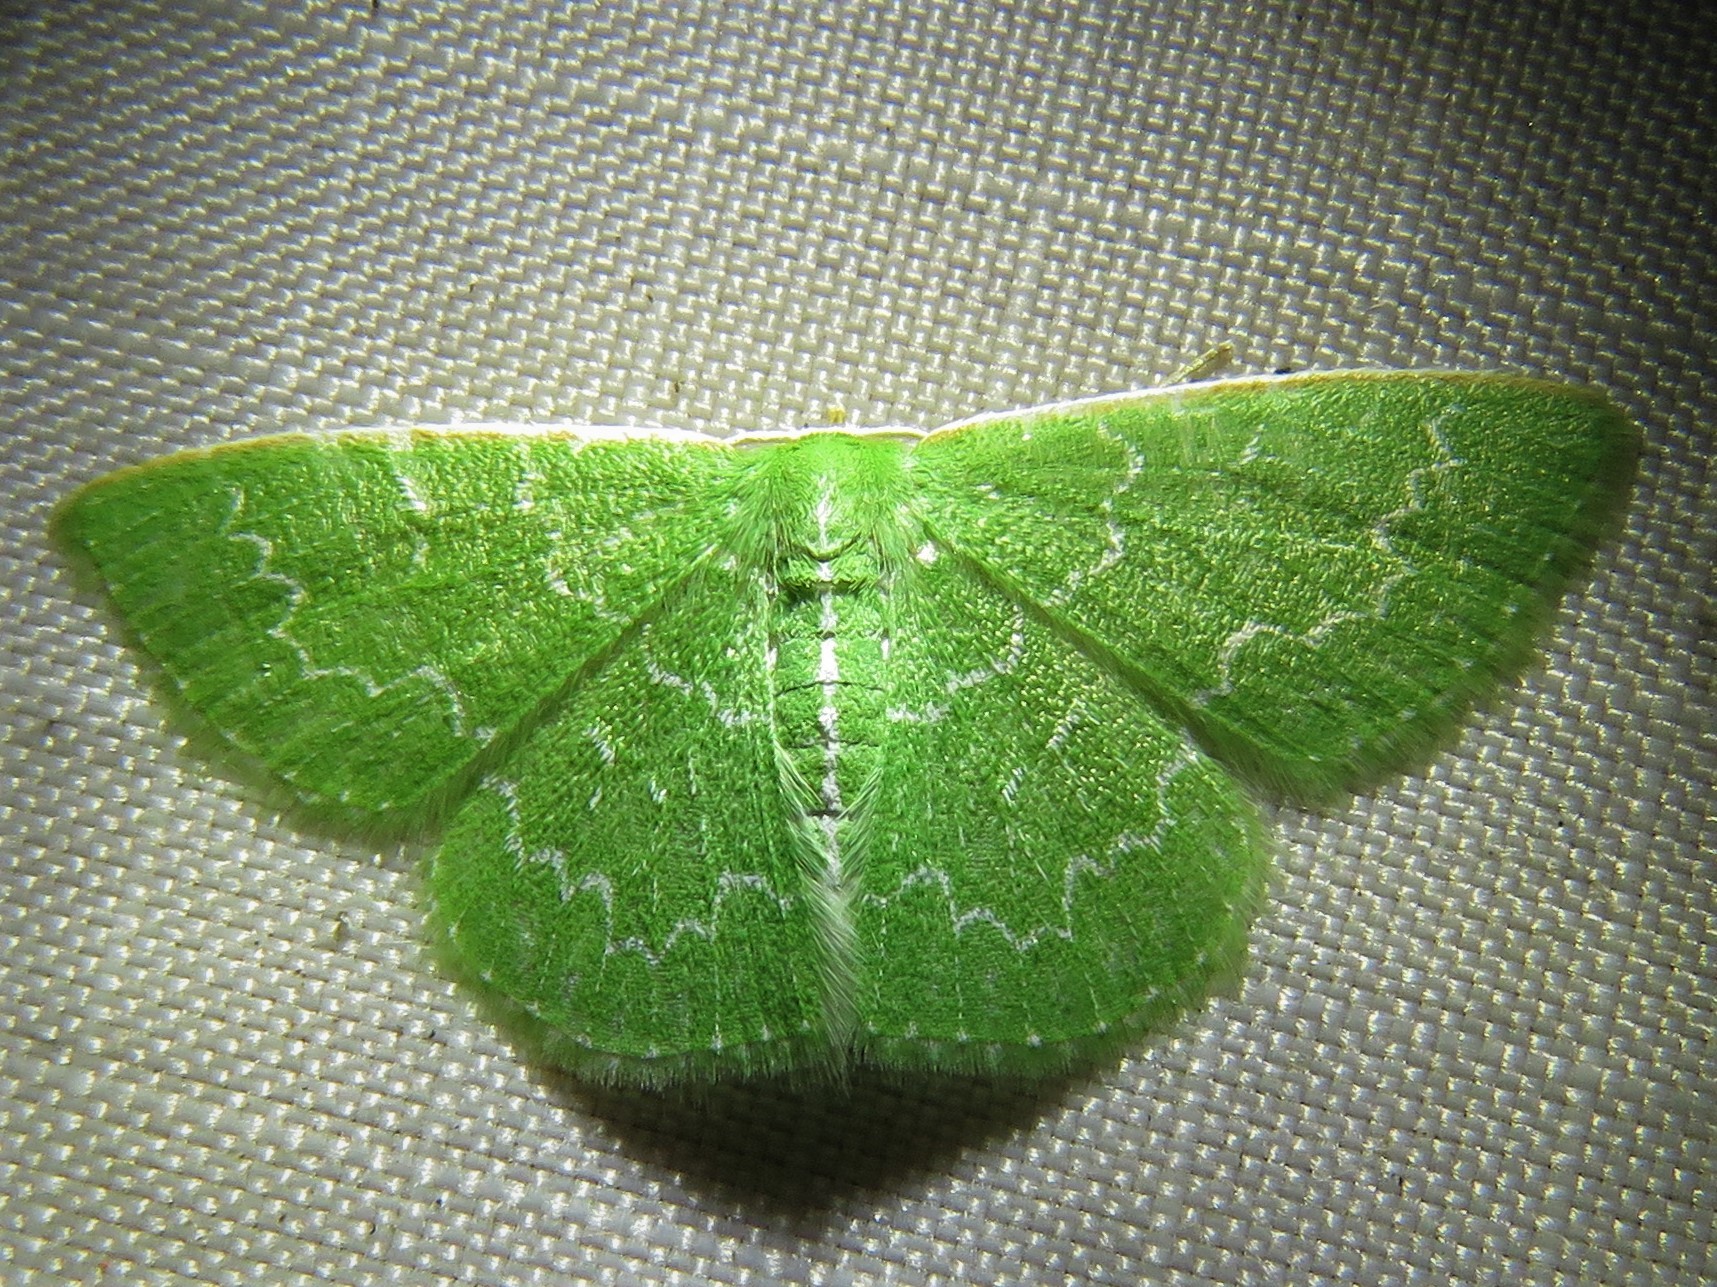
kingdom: Animalia
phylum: Arthropoda
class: Insecta
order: Lepidoptera
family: Geometridae
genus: Synchlora
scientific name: Synchlora frondaria
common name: Southern emerald
